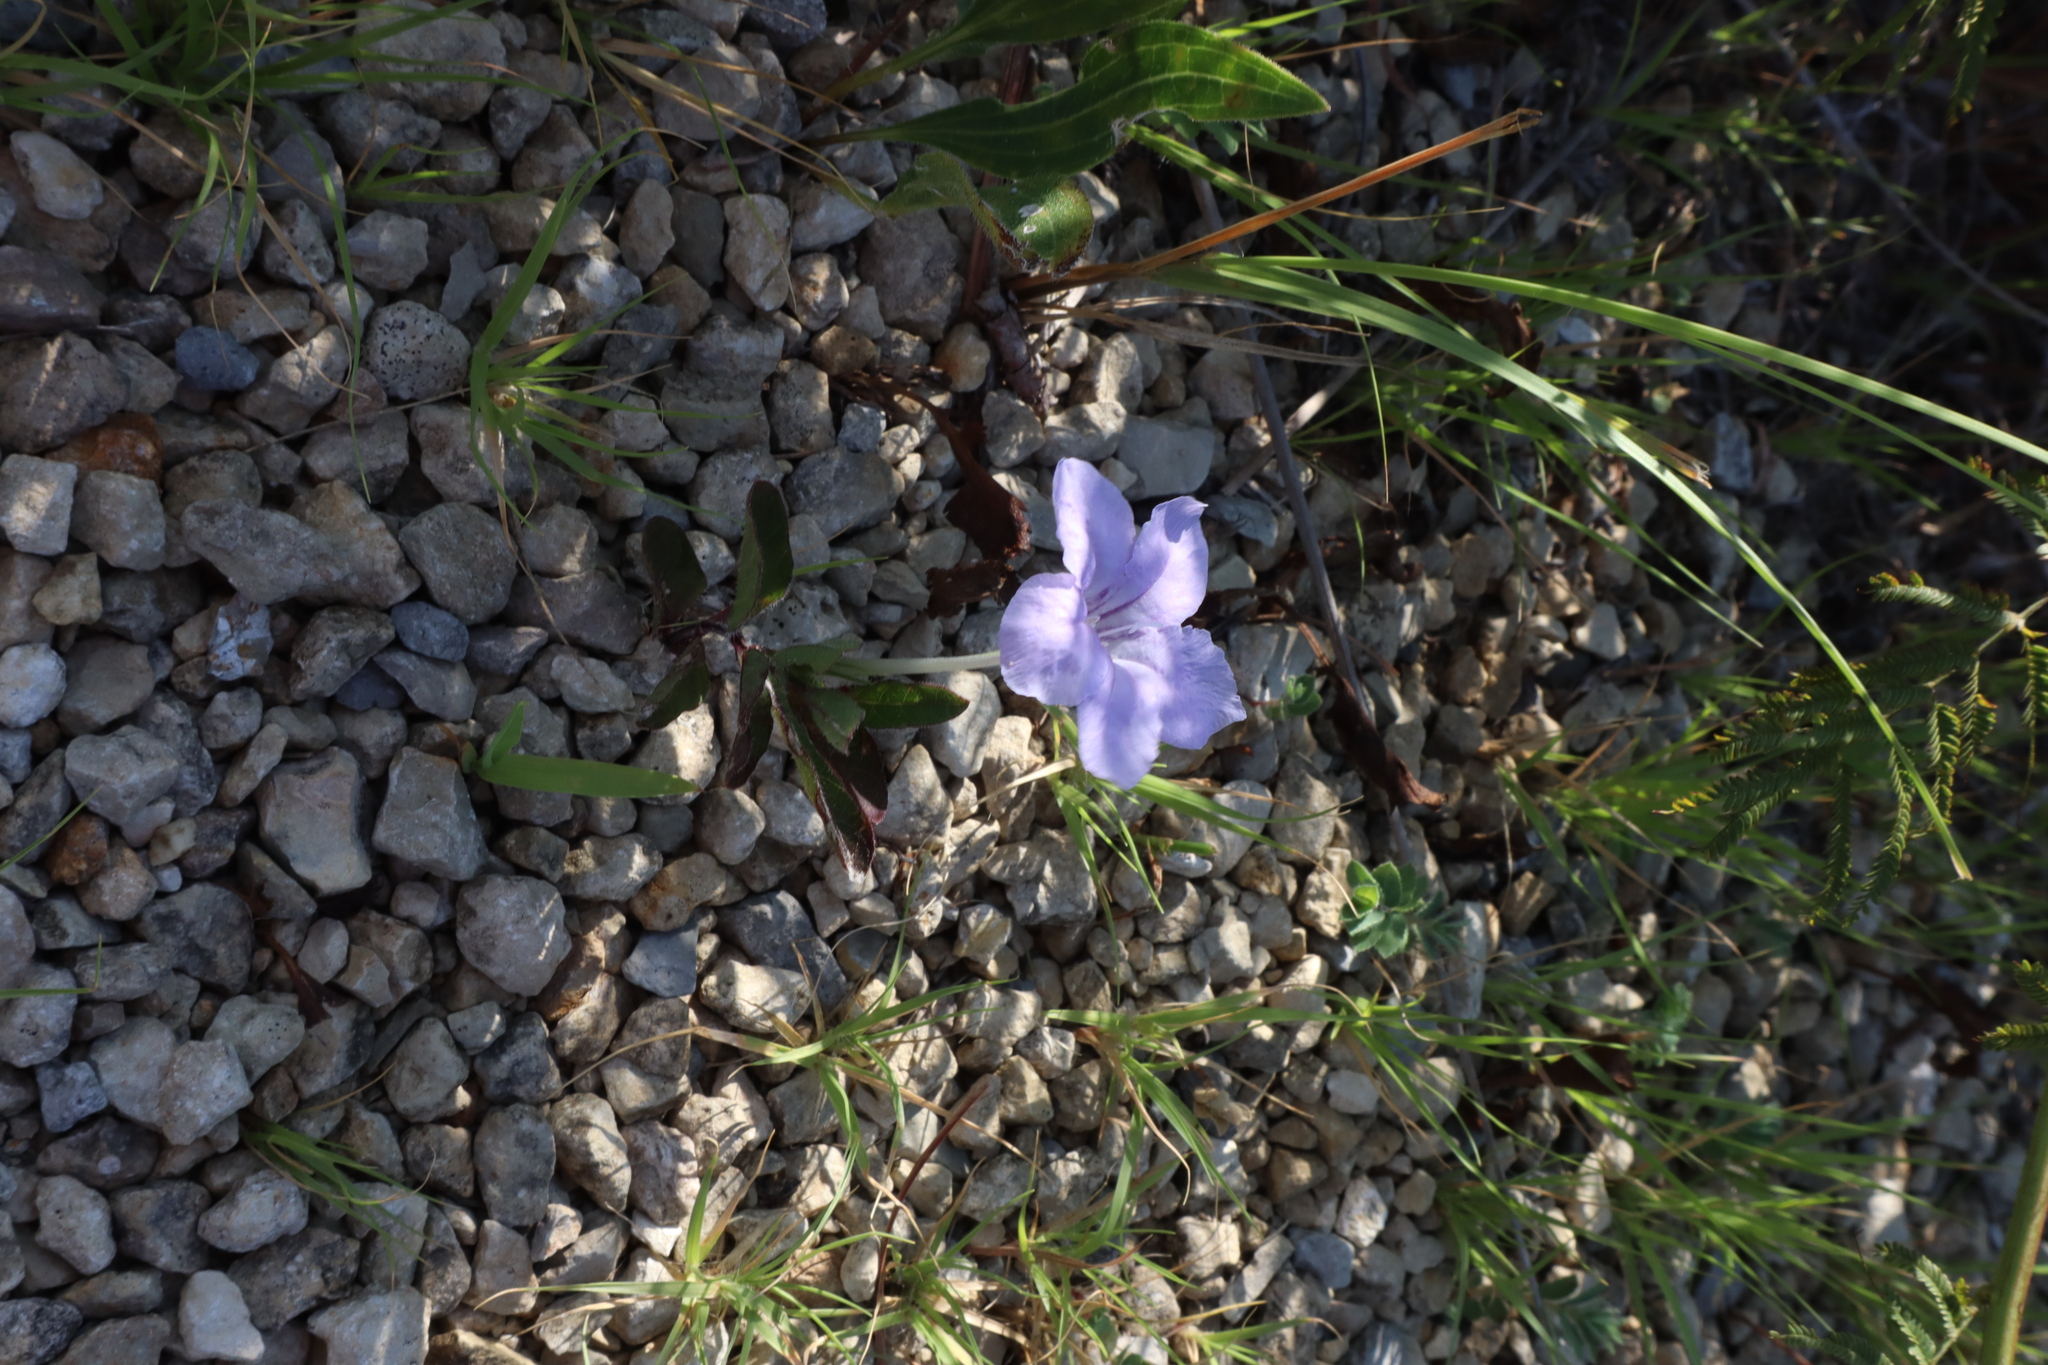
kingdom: Plantae
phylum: Tracheophyta
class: Magnoliopsida
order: Lamiales
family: Acanthaceae
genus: Ruellia
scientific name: Ruellia humilis
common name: Fringe-leaf ruellia
